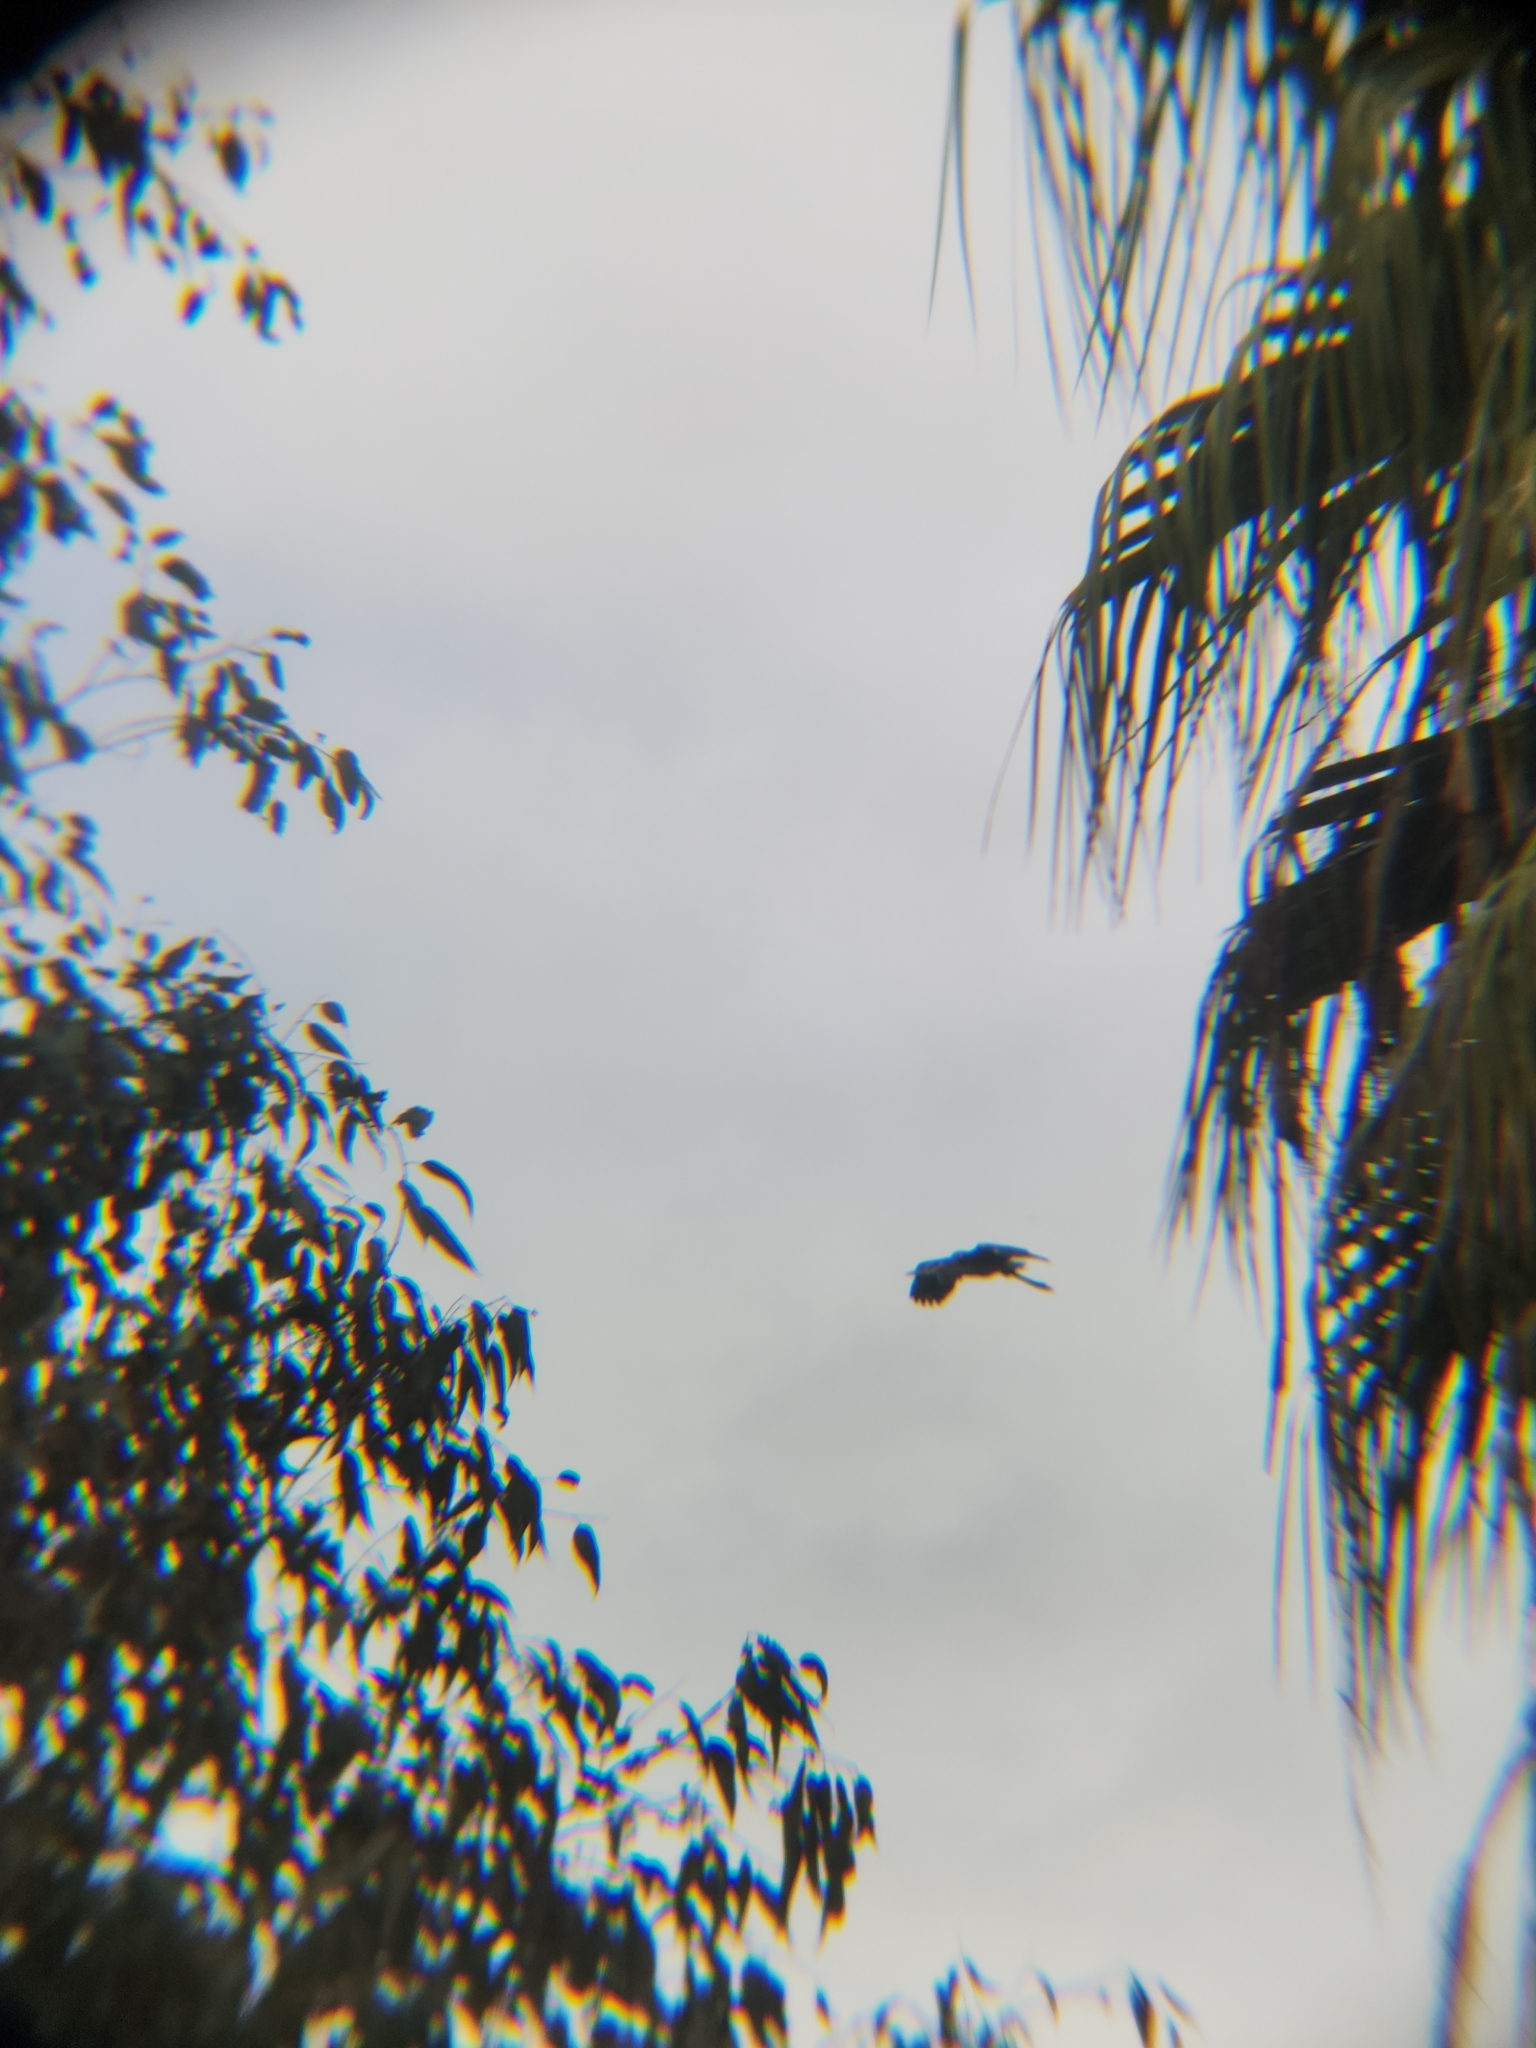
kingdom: Animalia
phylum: Chordata
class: Aves
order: Pelecaniformes
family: Ardeidae
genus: Ardea
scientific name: Ardea herodias
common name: Great blue heron
